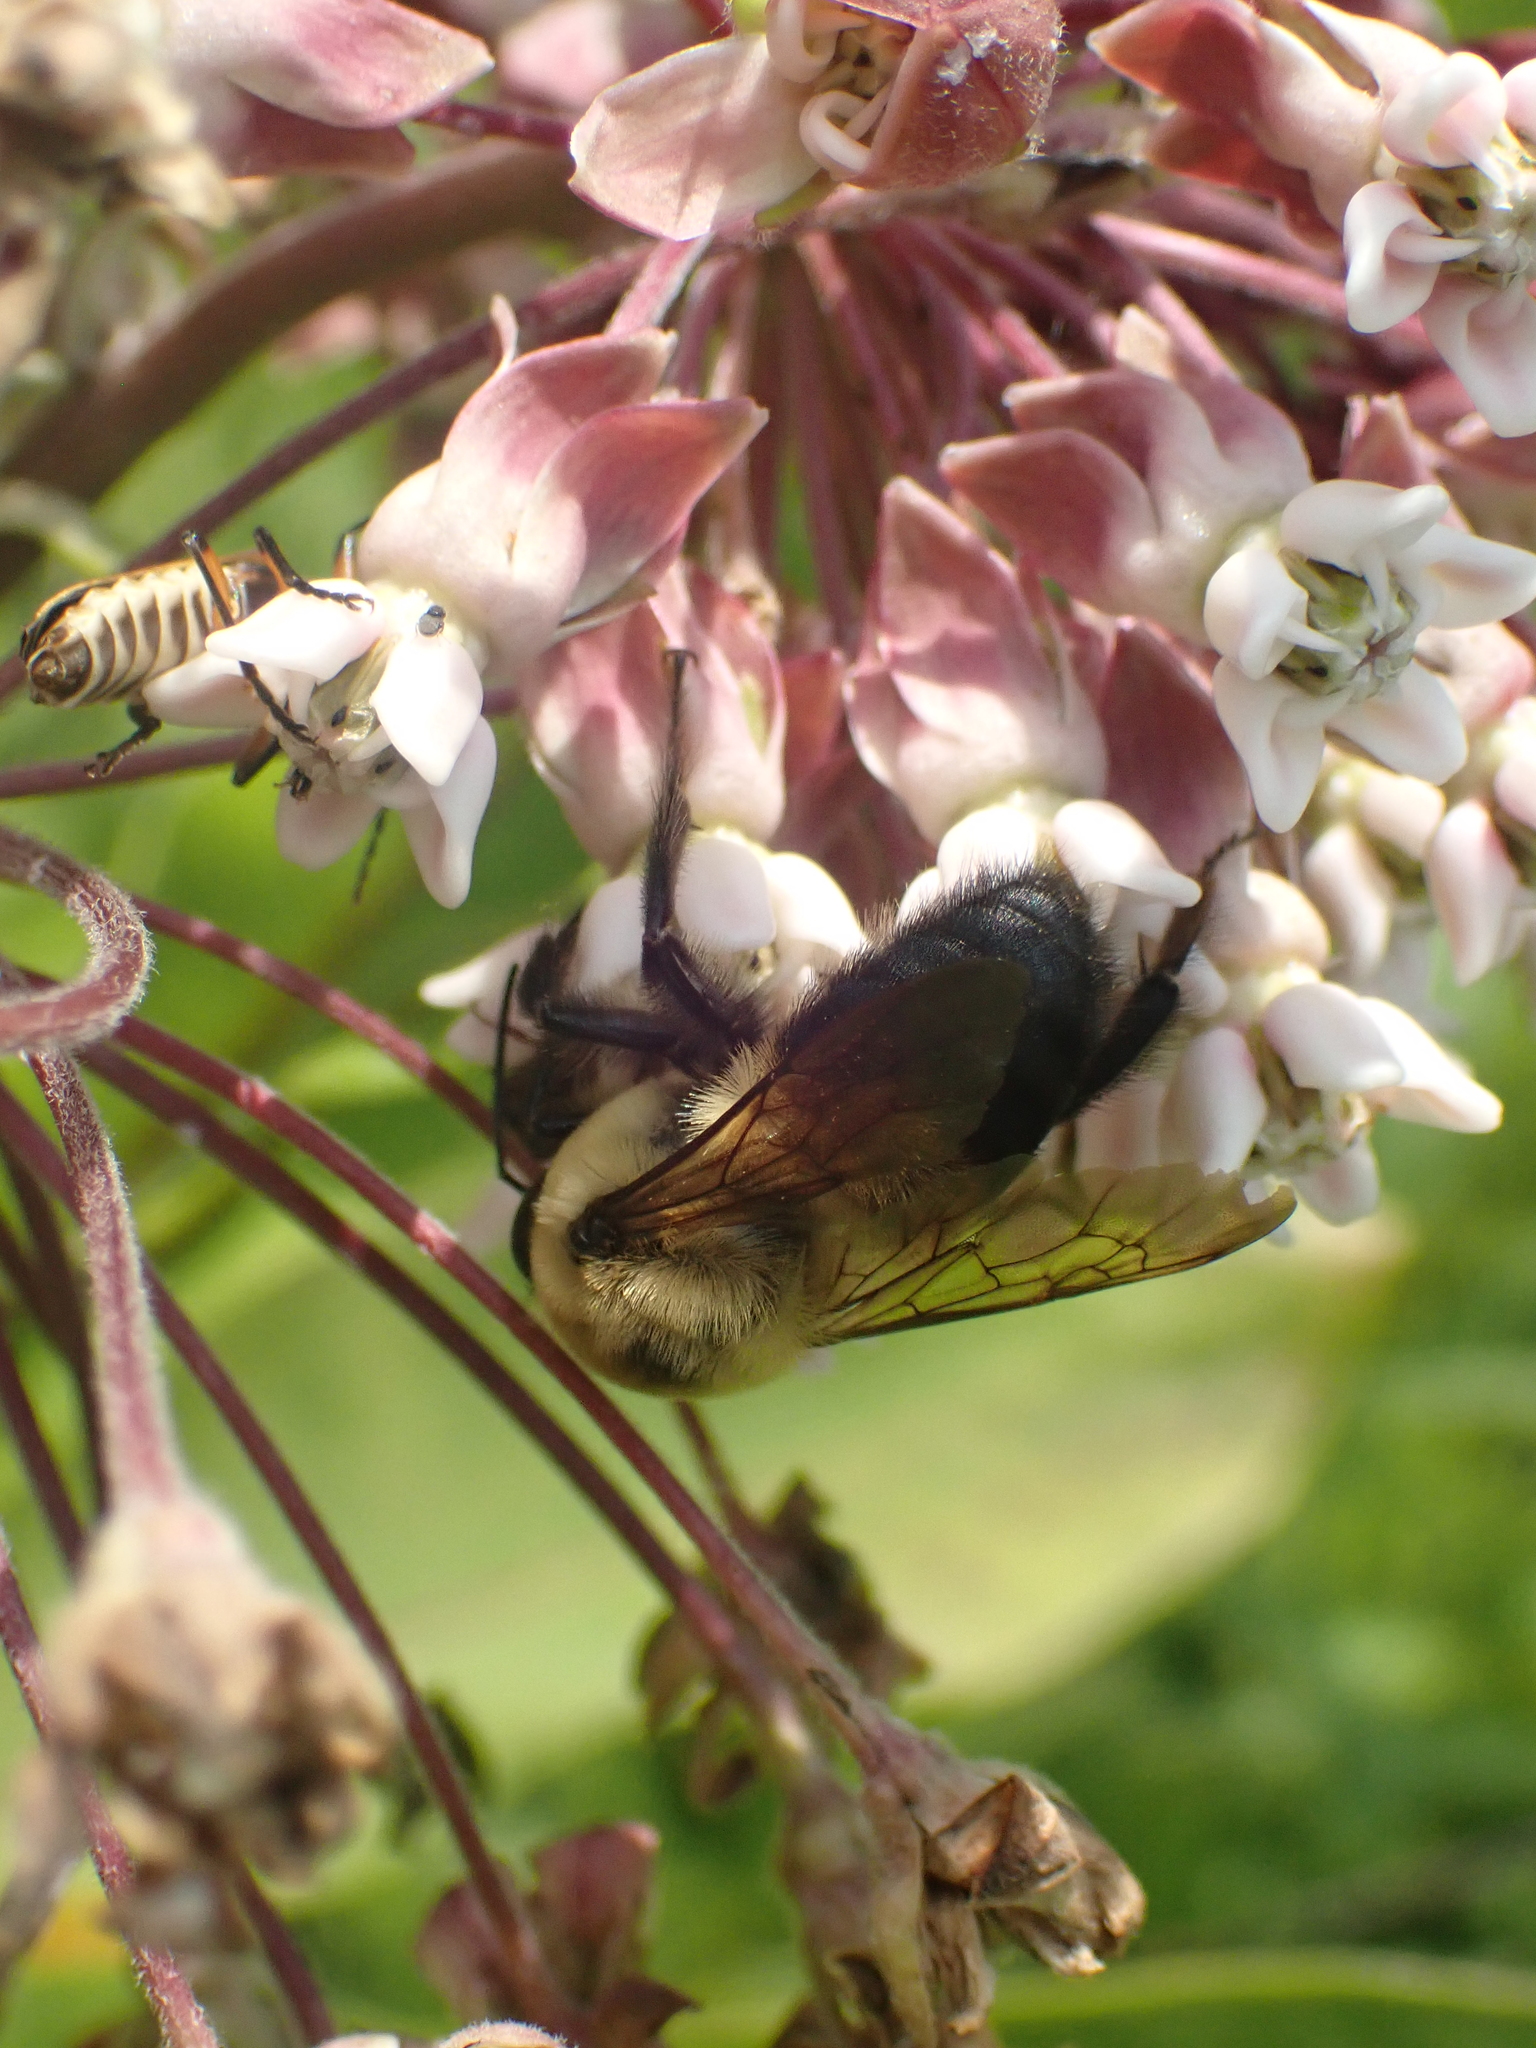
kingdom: Animalia
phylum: Arthropoda
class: Insecta
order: Hymenoptera
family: Apidae
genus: Bombus
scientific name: Bombus griseocollis
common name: Brown-belted bumble bee
